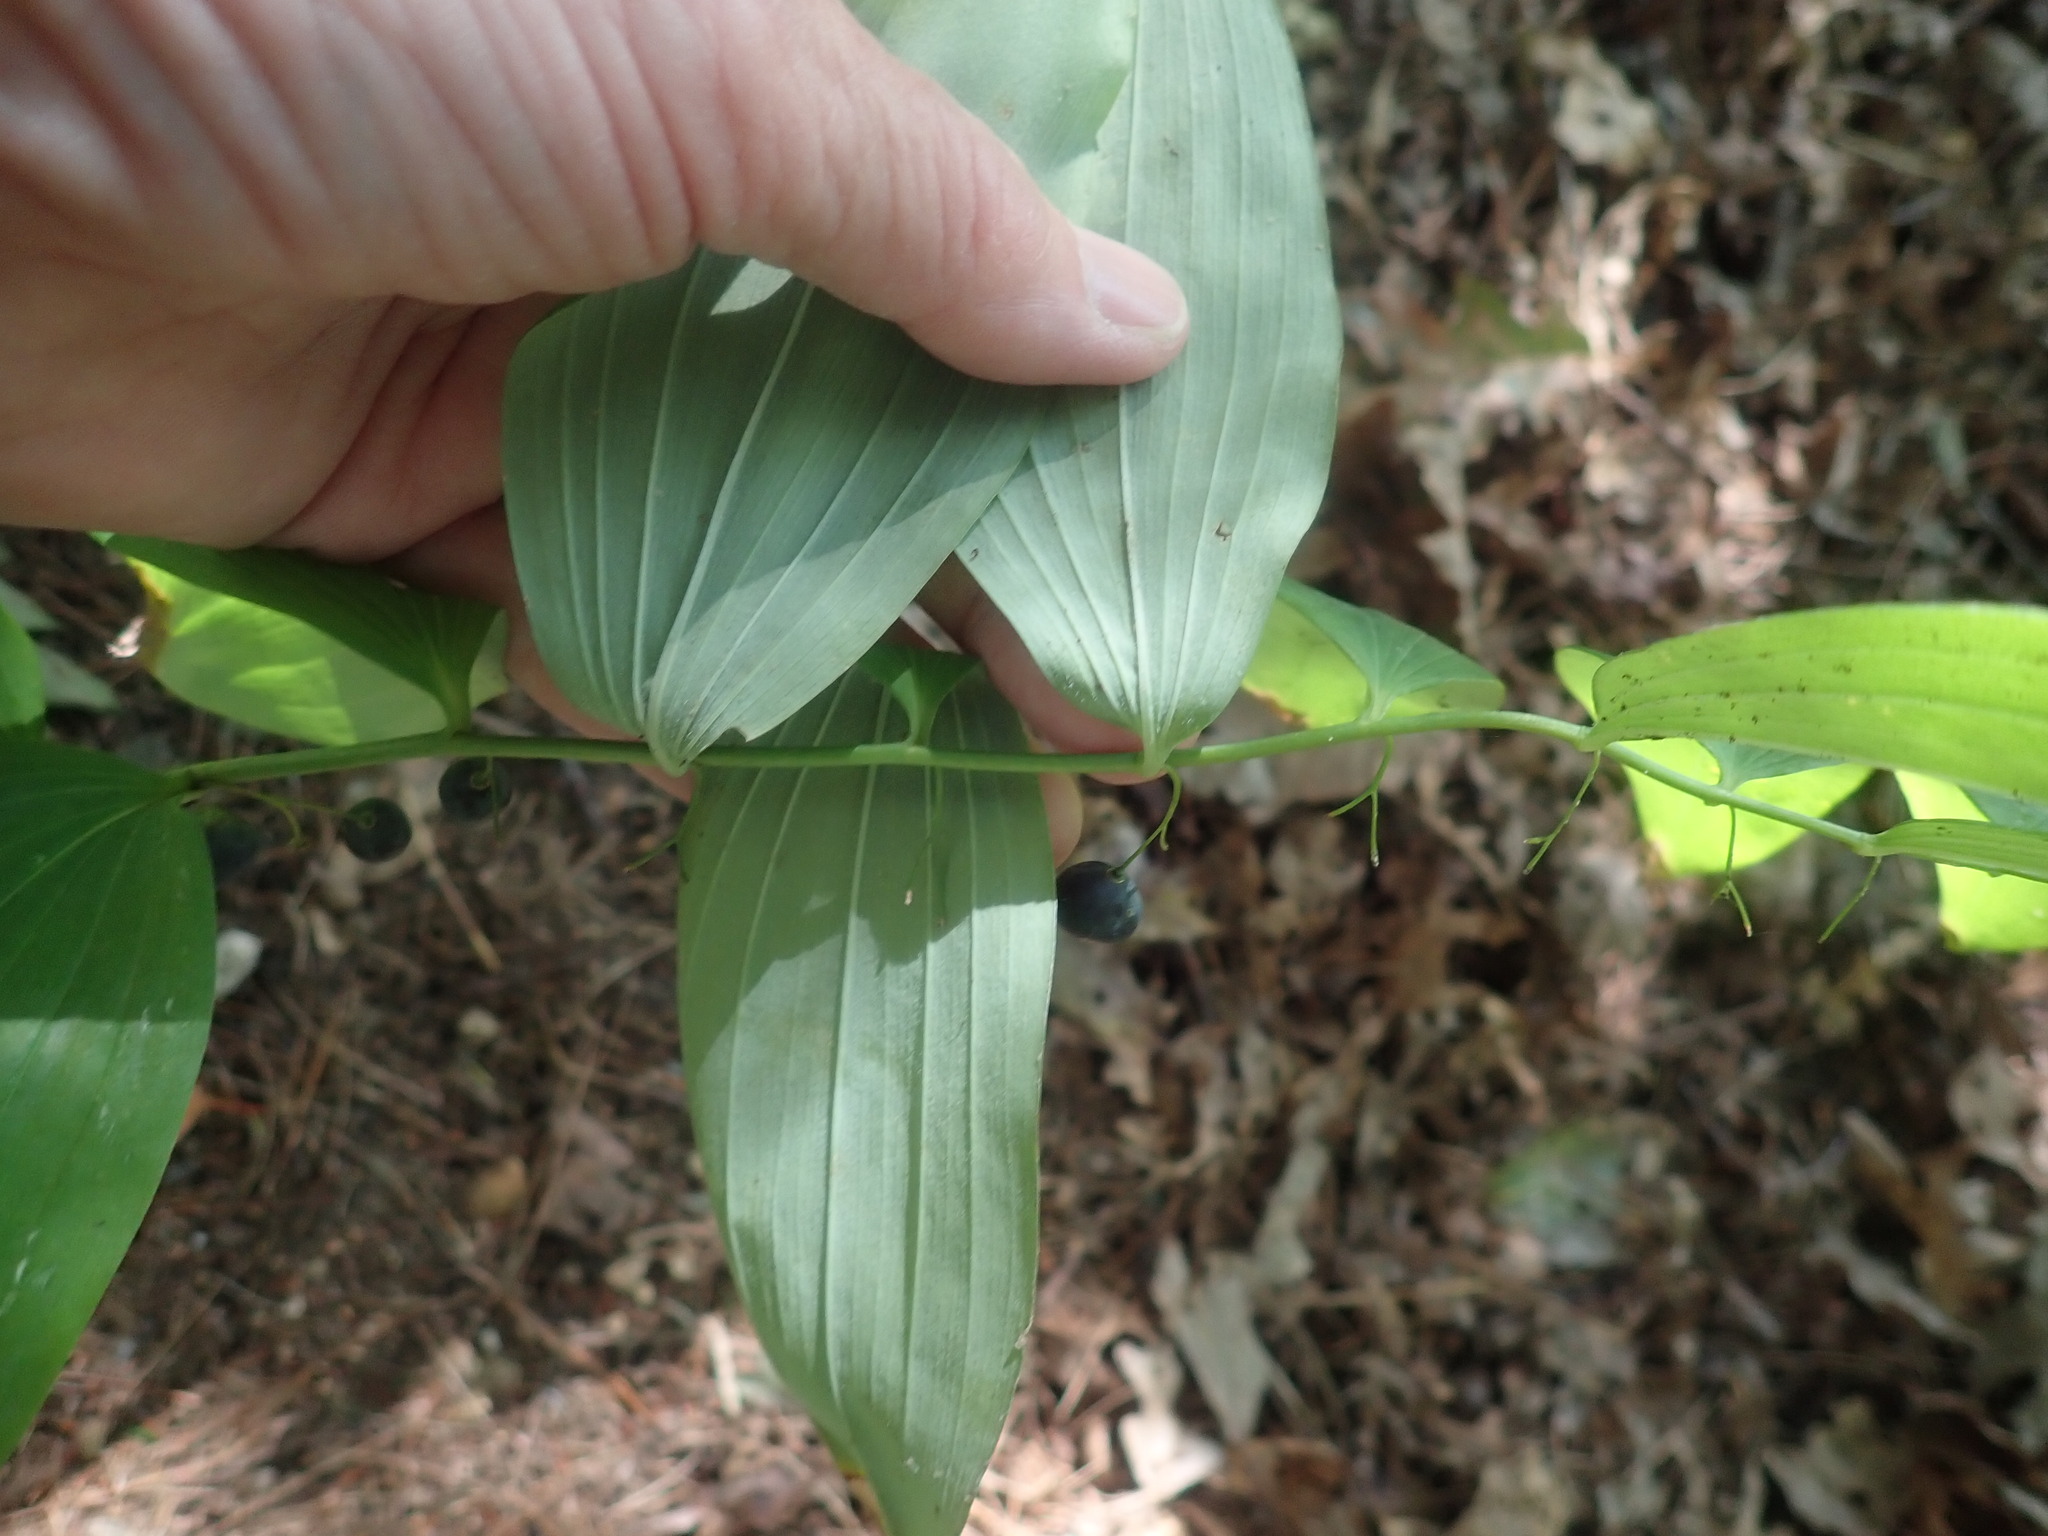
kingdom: Plantae
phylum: Tracheophyta
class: Liliopsida
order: Asparagales
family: Asparagaceae
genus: Polygonatum
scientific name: Polygonatum pubescens
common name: Downy solomon's seal
